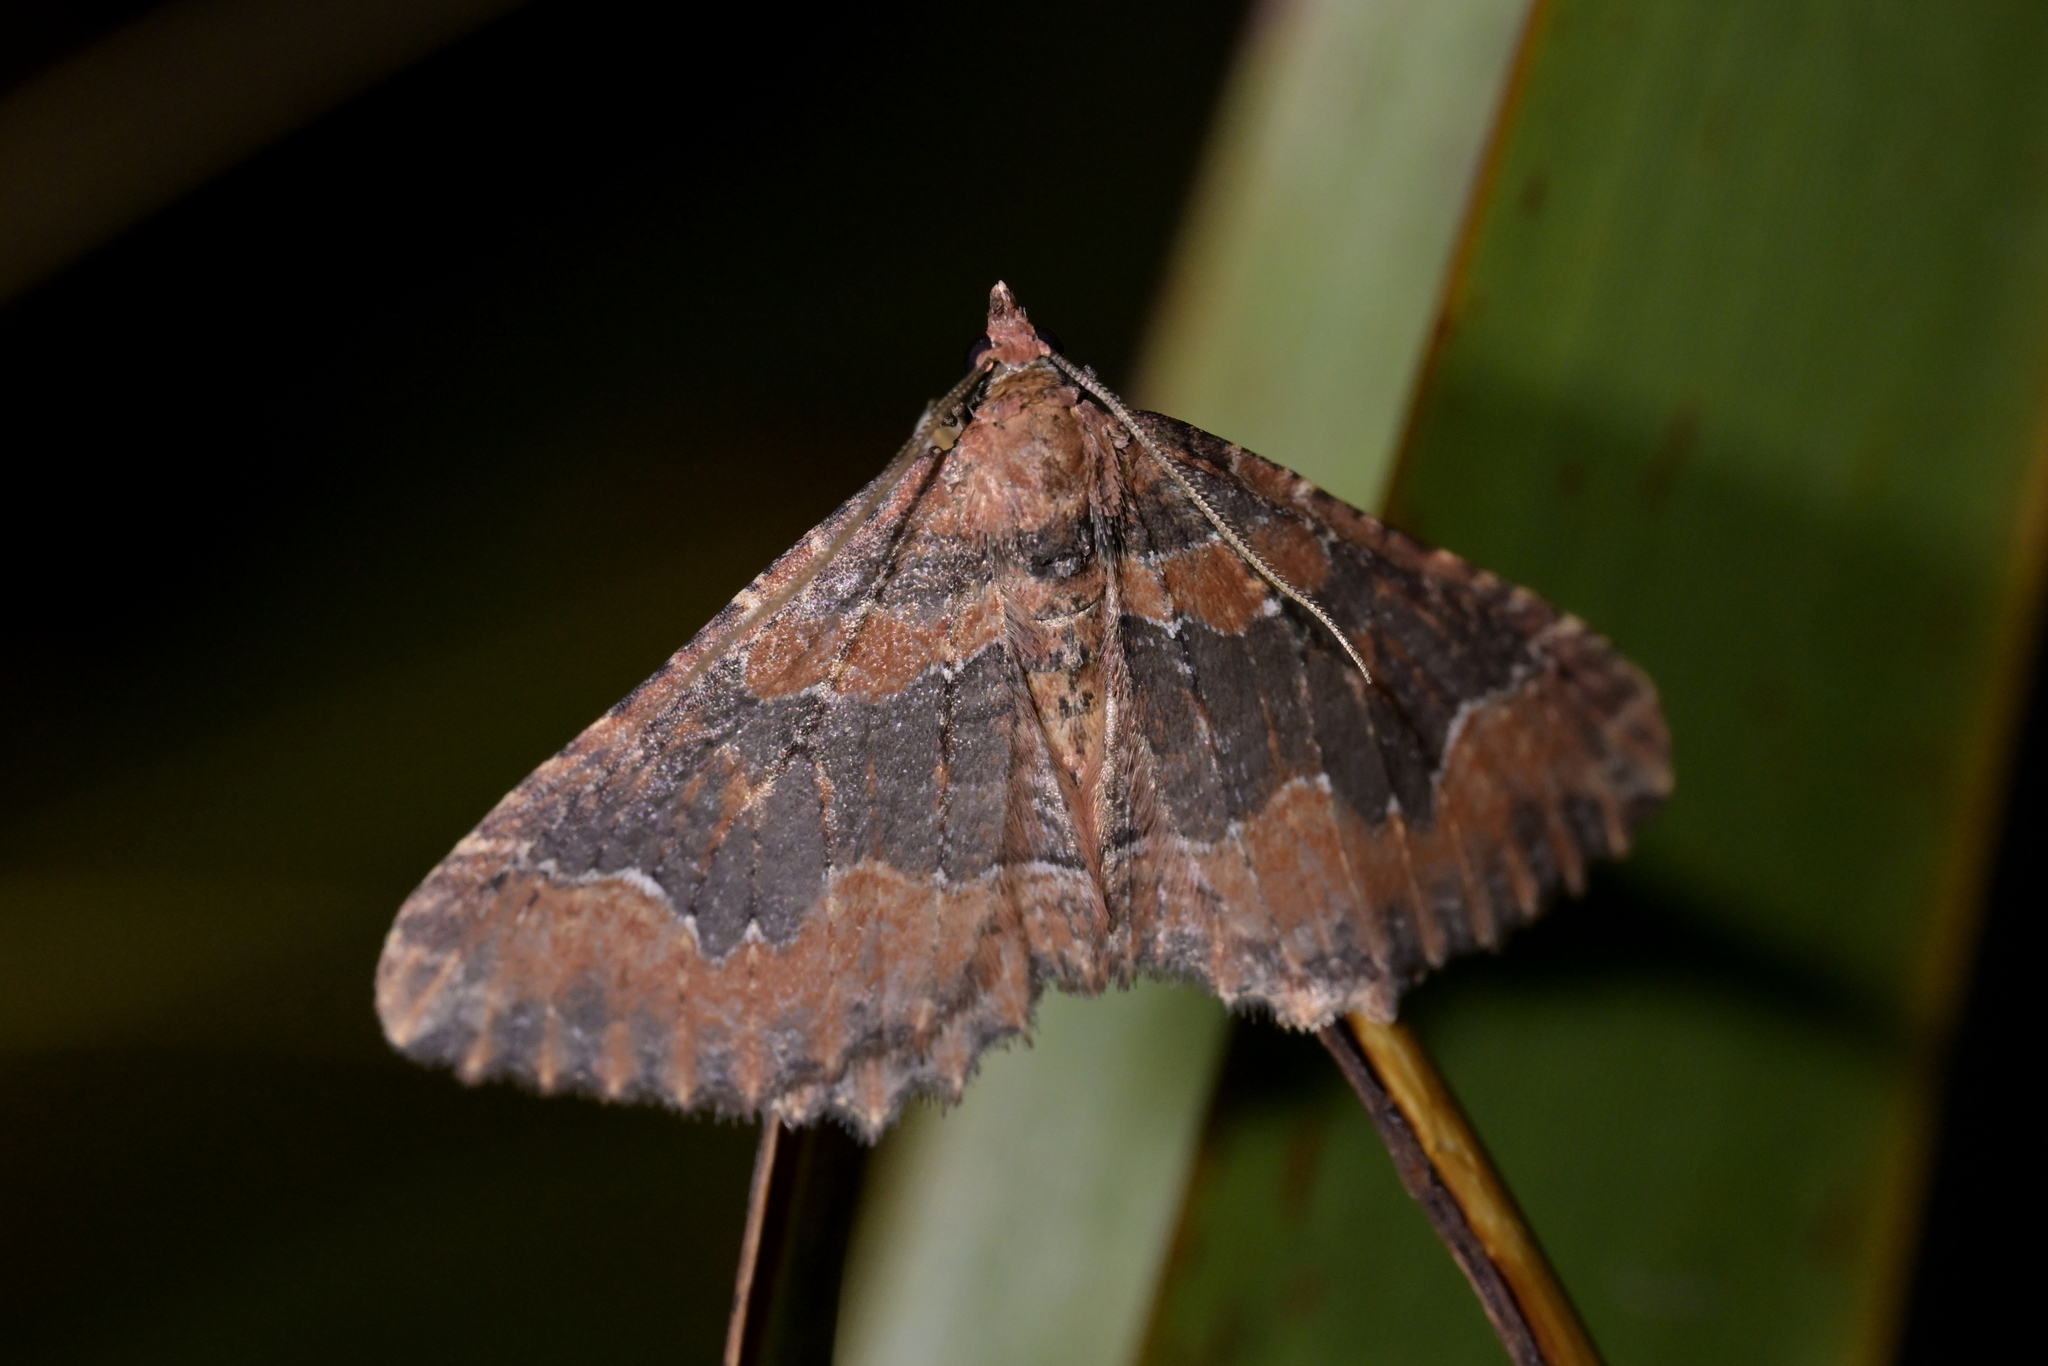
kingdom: Animalia
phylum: Arthropoda
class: Insecta
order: Lepidoptera
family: Geometridae
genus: Hydriomena
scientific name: Hydriomena hemizona
